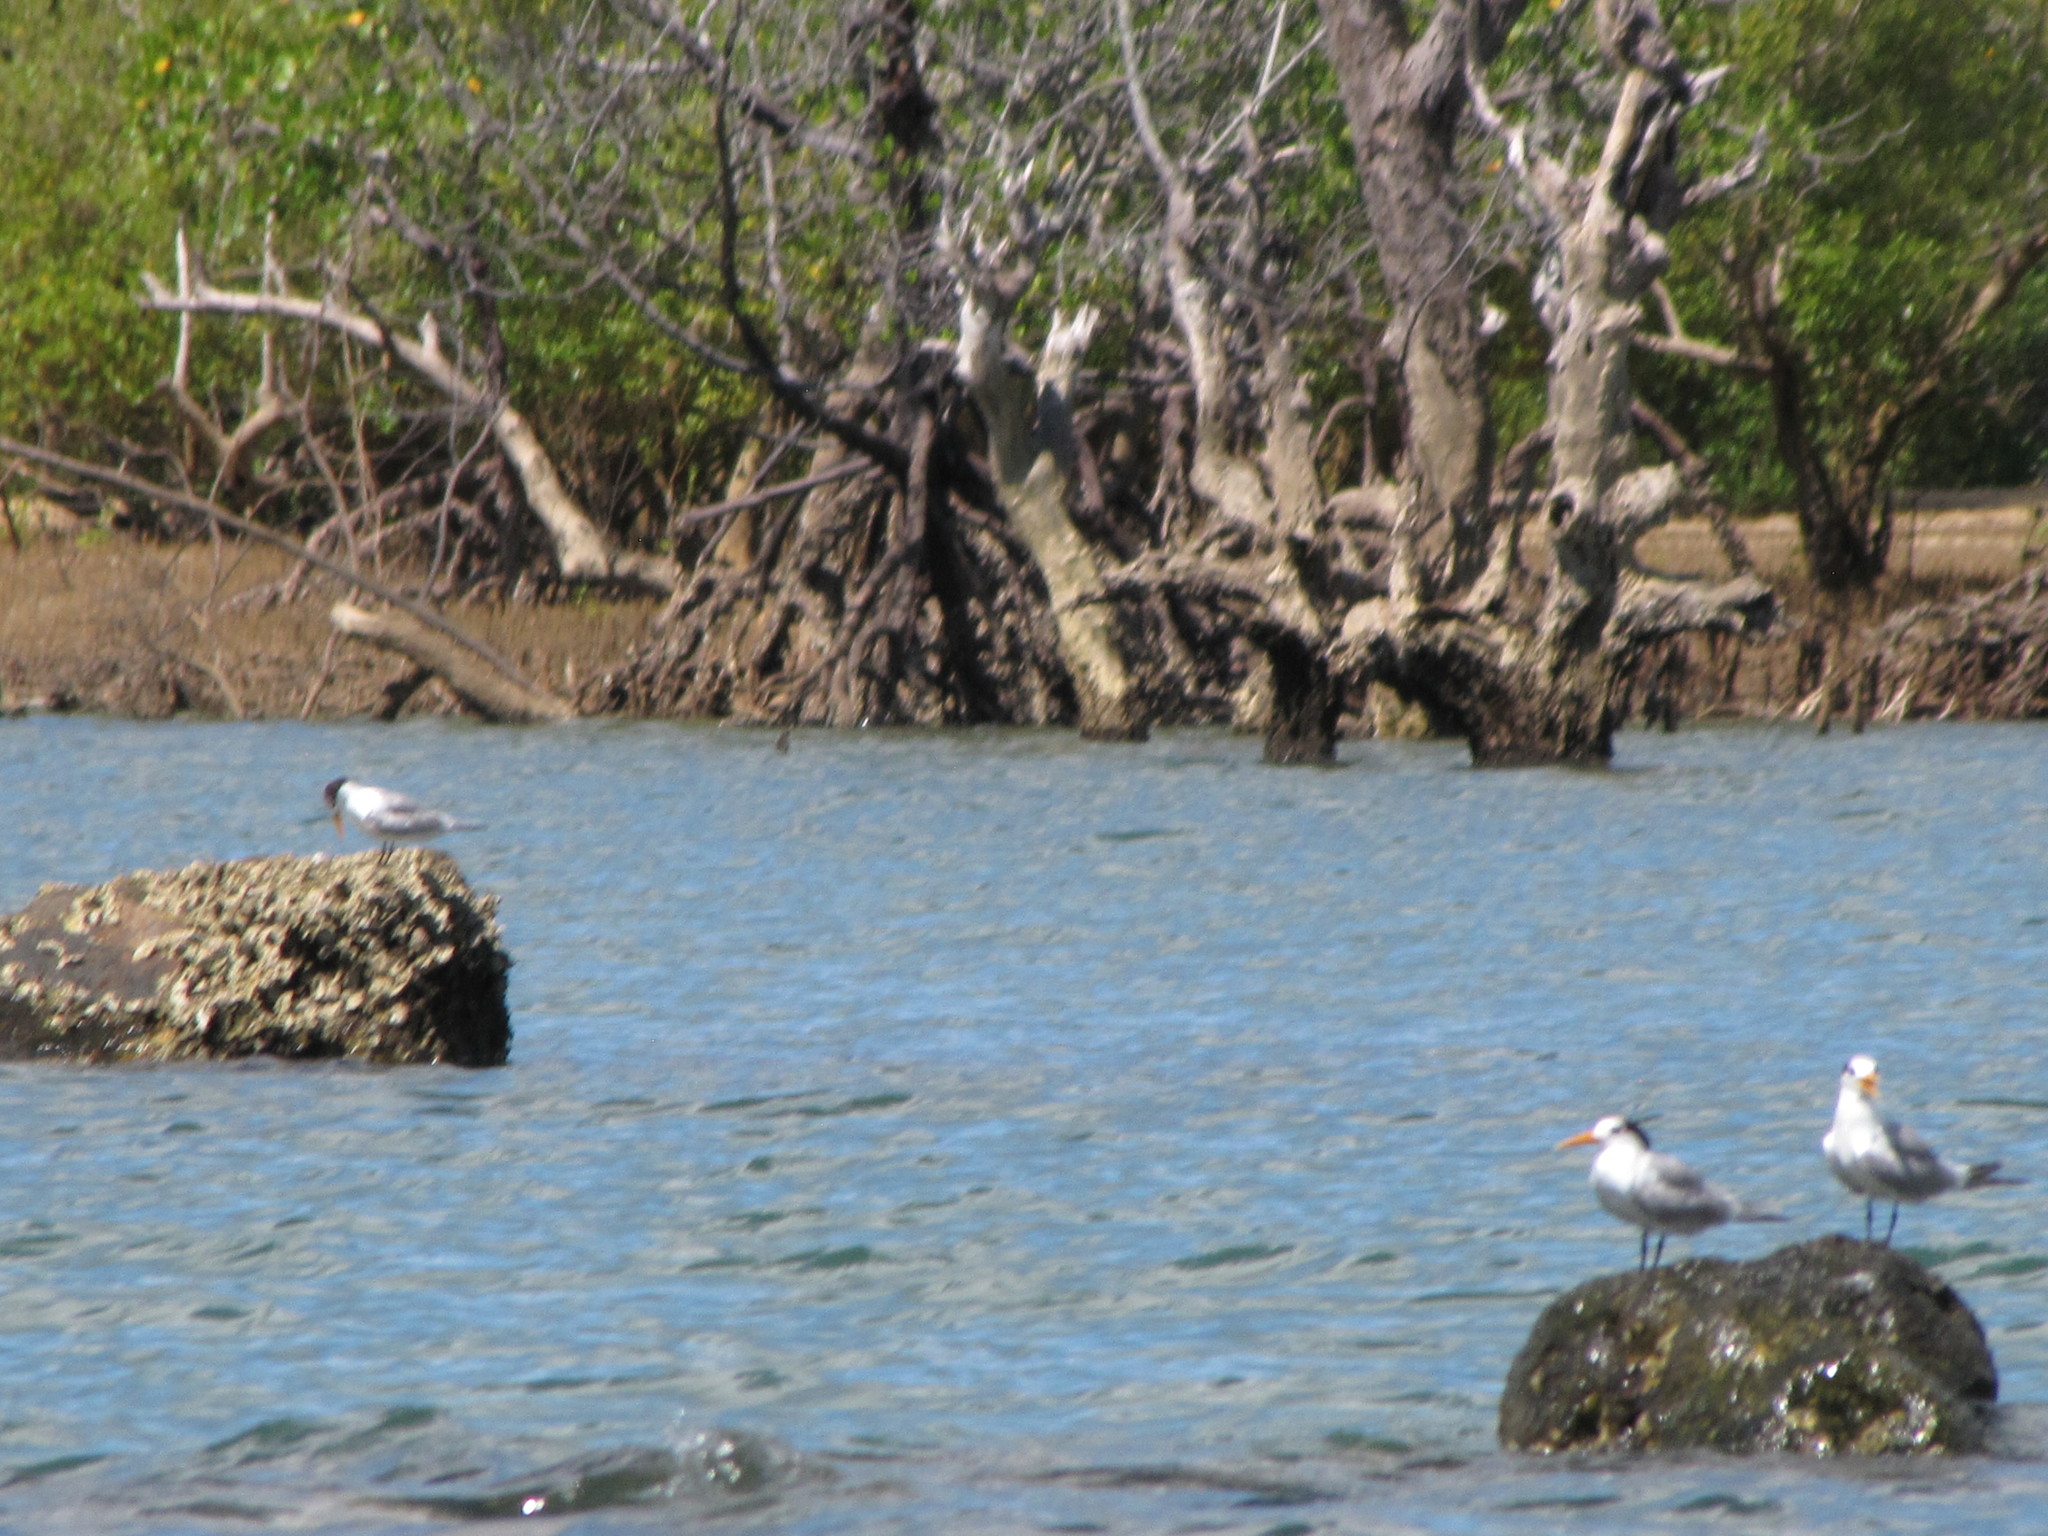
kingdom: Animalia
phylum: Chordata
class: Aves
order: Charadriiformes
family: Laridae
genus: Thalasseus
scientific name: Thalasseus bengalensis
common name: Lesser crested tern
